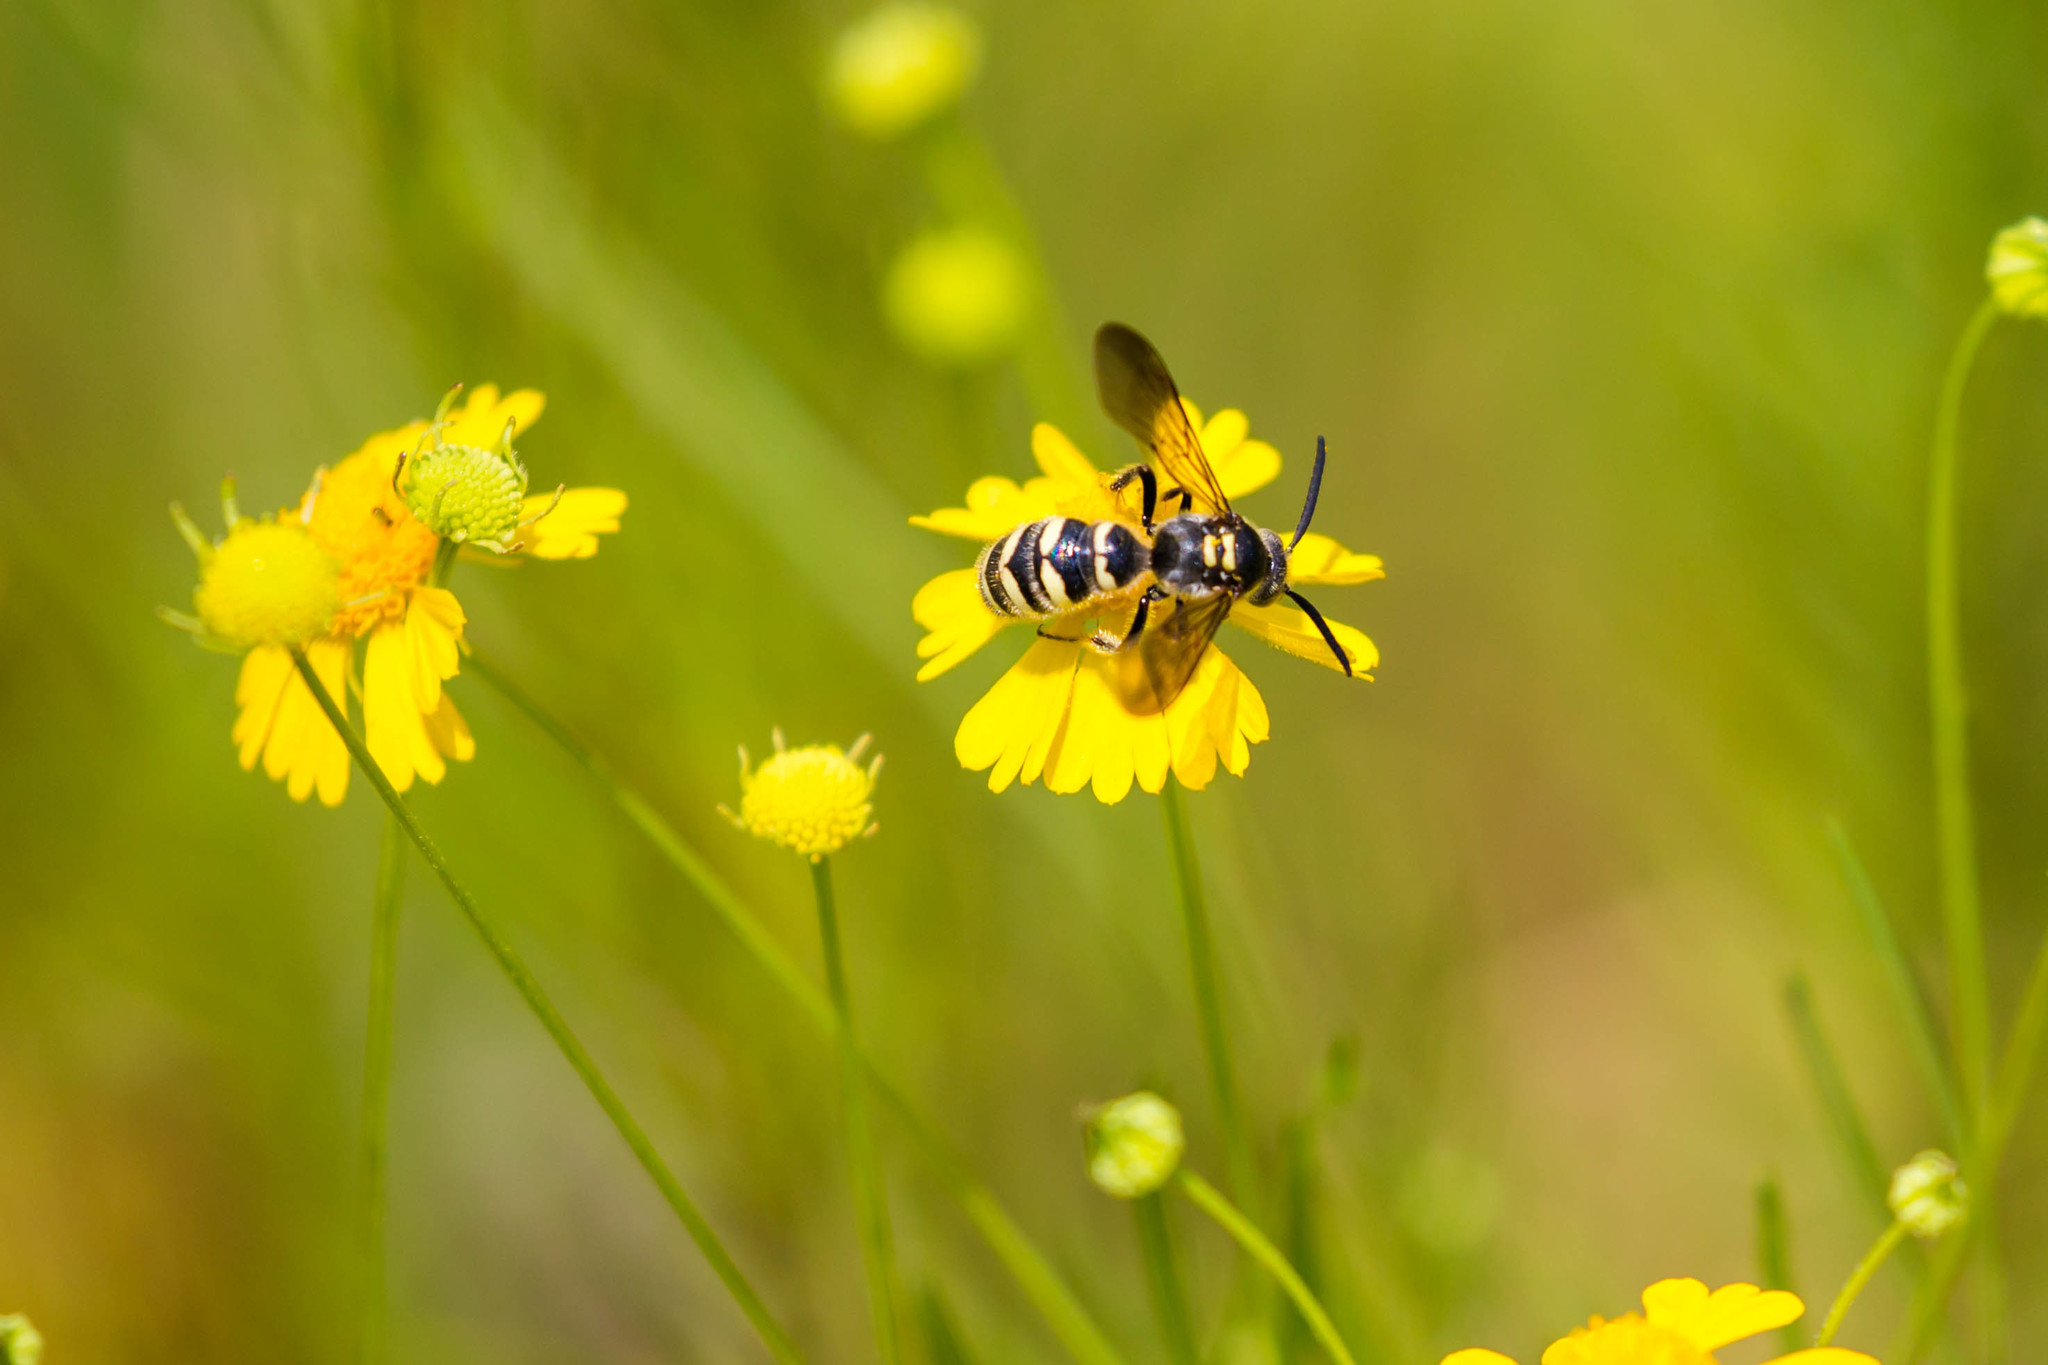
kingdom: Animalia
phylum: Arthropoda
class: Insecta
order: Hymenoptera
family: Scoliidae
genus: Colpa
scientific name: Colpa octomaculata
